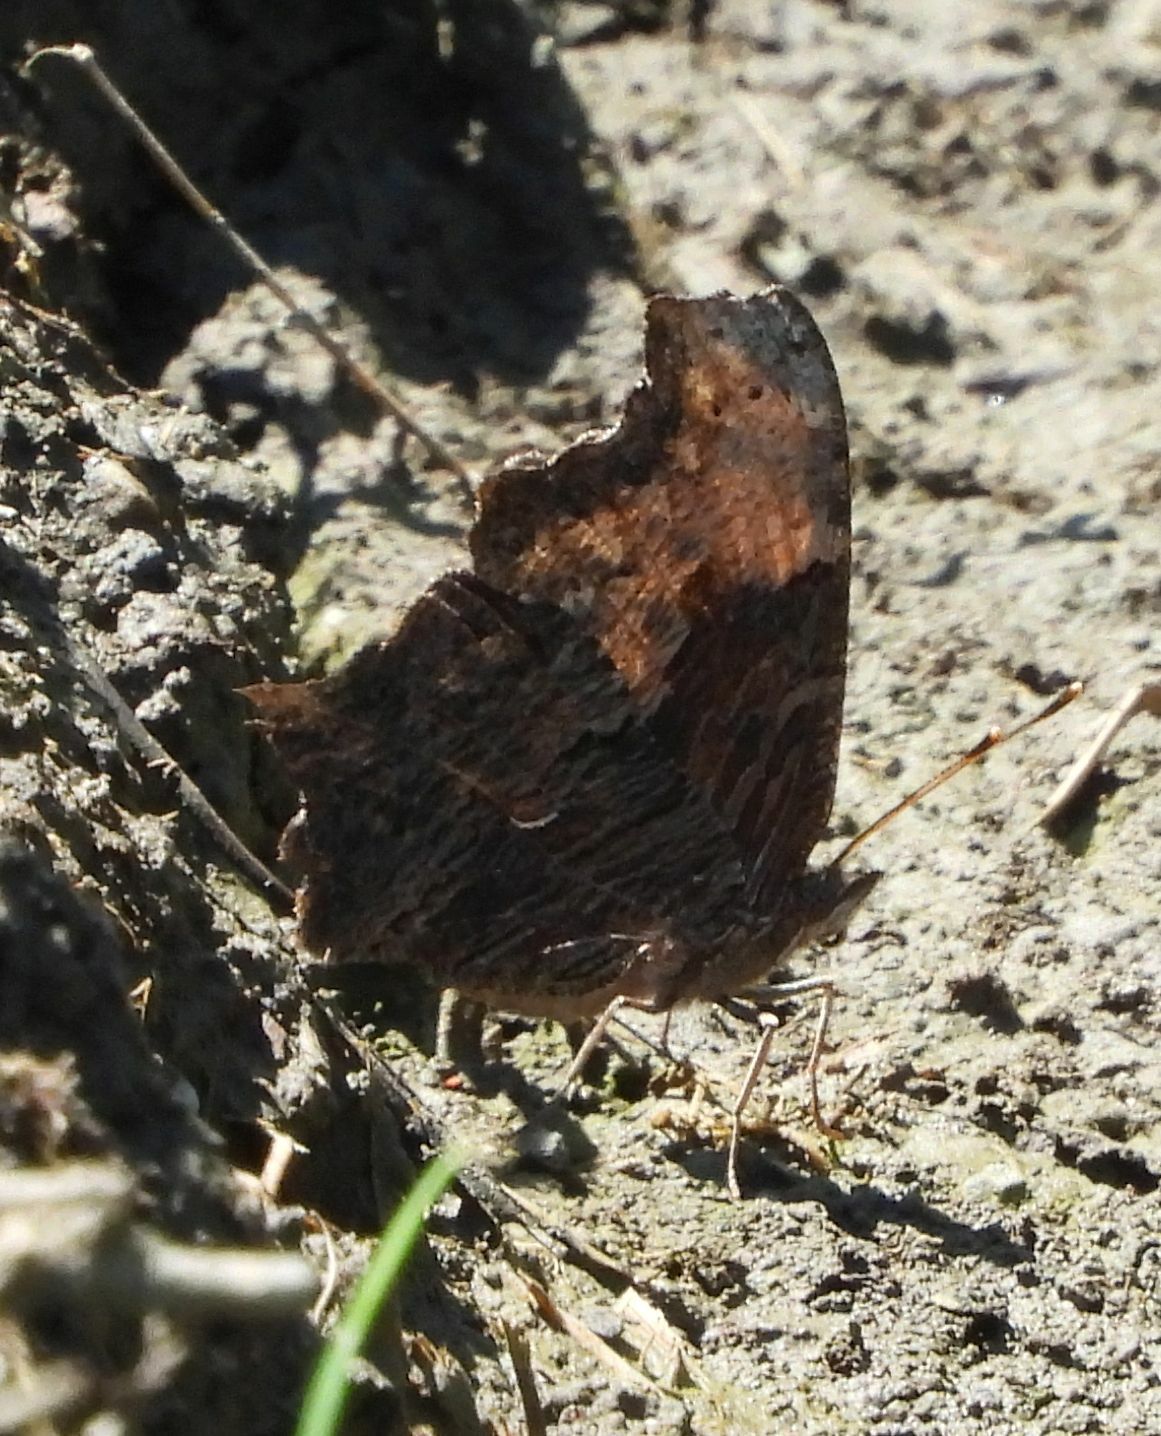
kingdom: Animalia
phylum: Arthropoda
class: Insecta
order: Lepidoptera
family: Nymphalidae
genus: Polygonia
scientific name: Polygonia progne
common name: Gray comma
